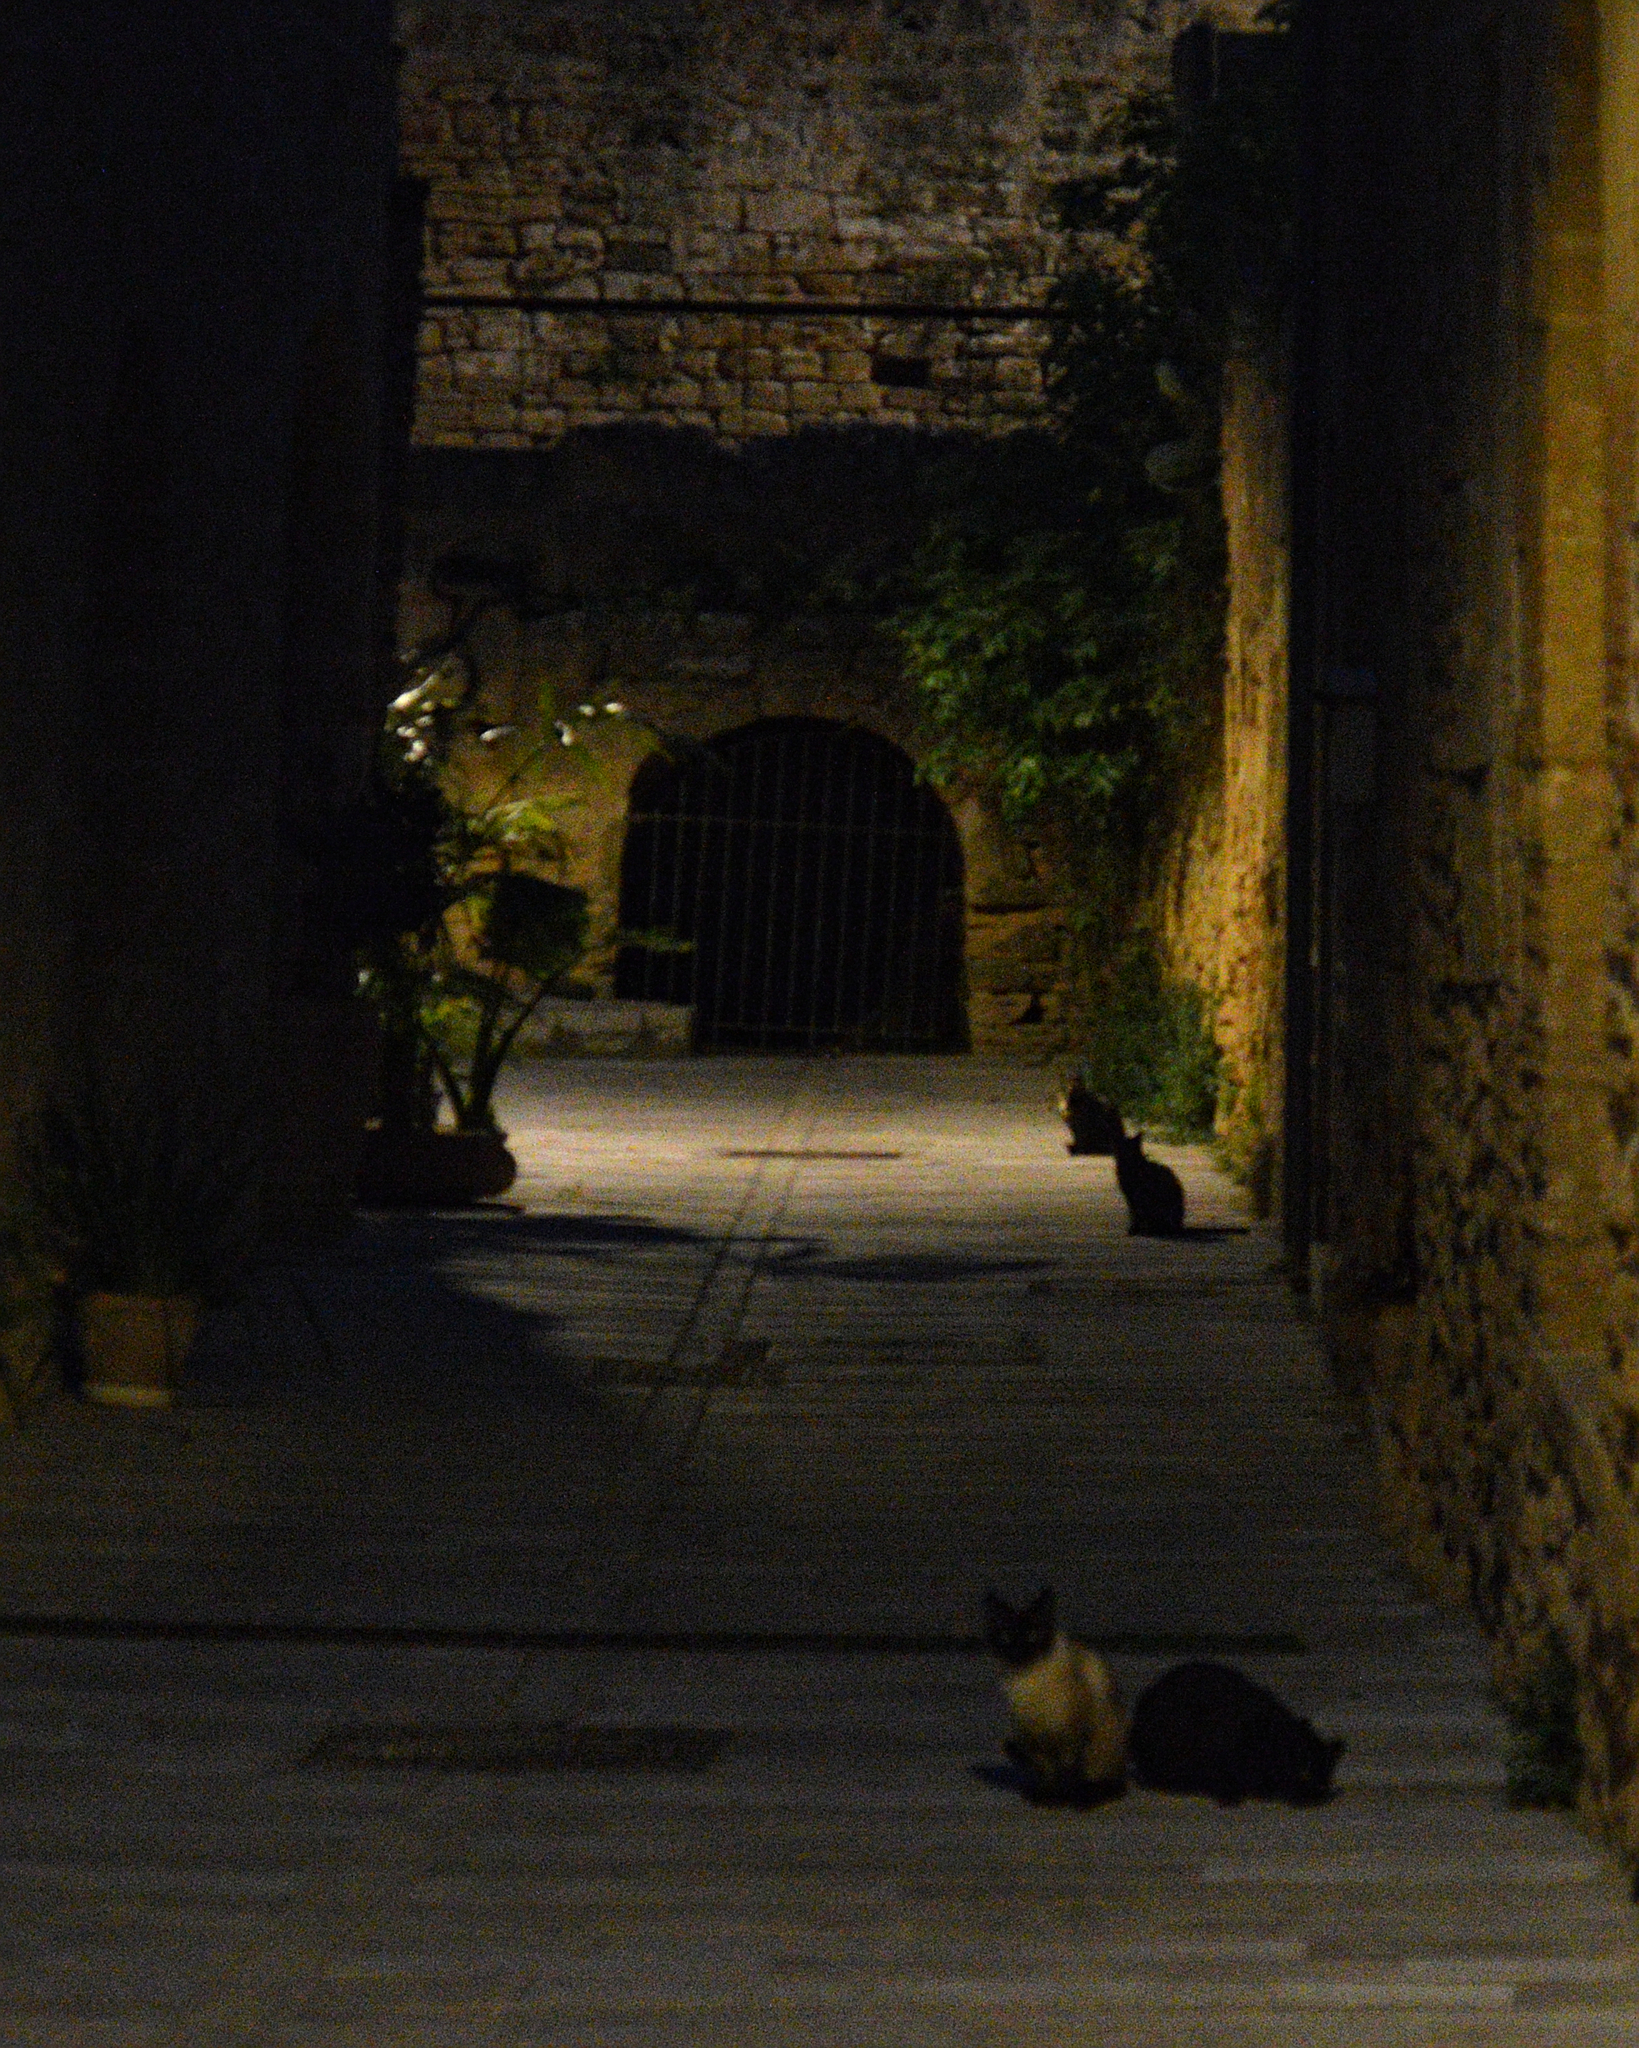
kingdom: Animalia
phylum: Chordata
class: Mammalia
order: Carnivora
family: Felidae
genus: Felis
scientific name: Felis catus
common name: Domestic cat
